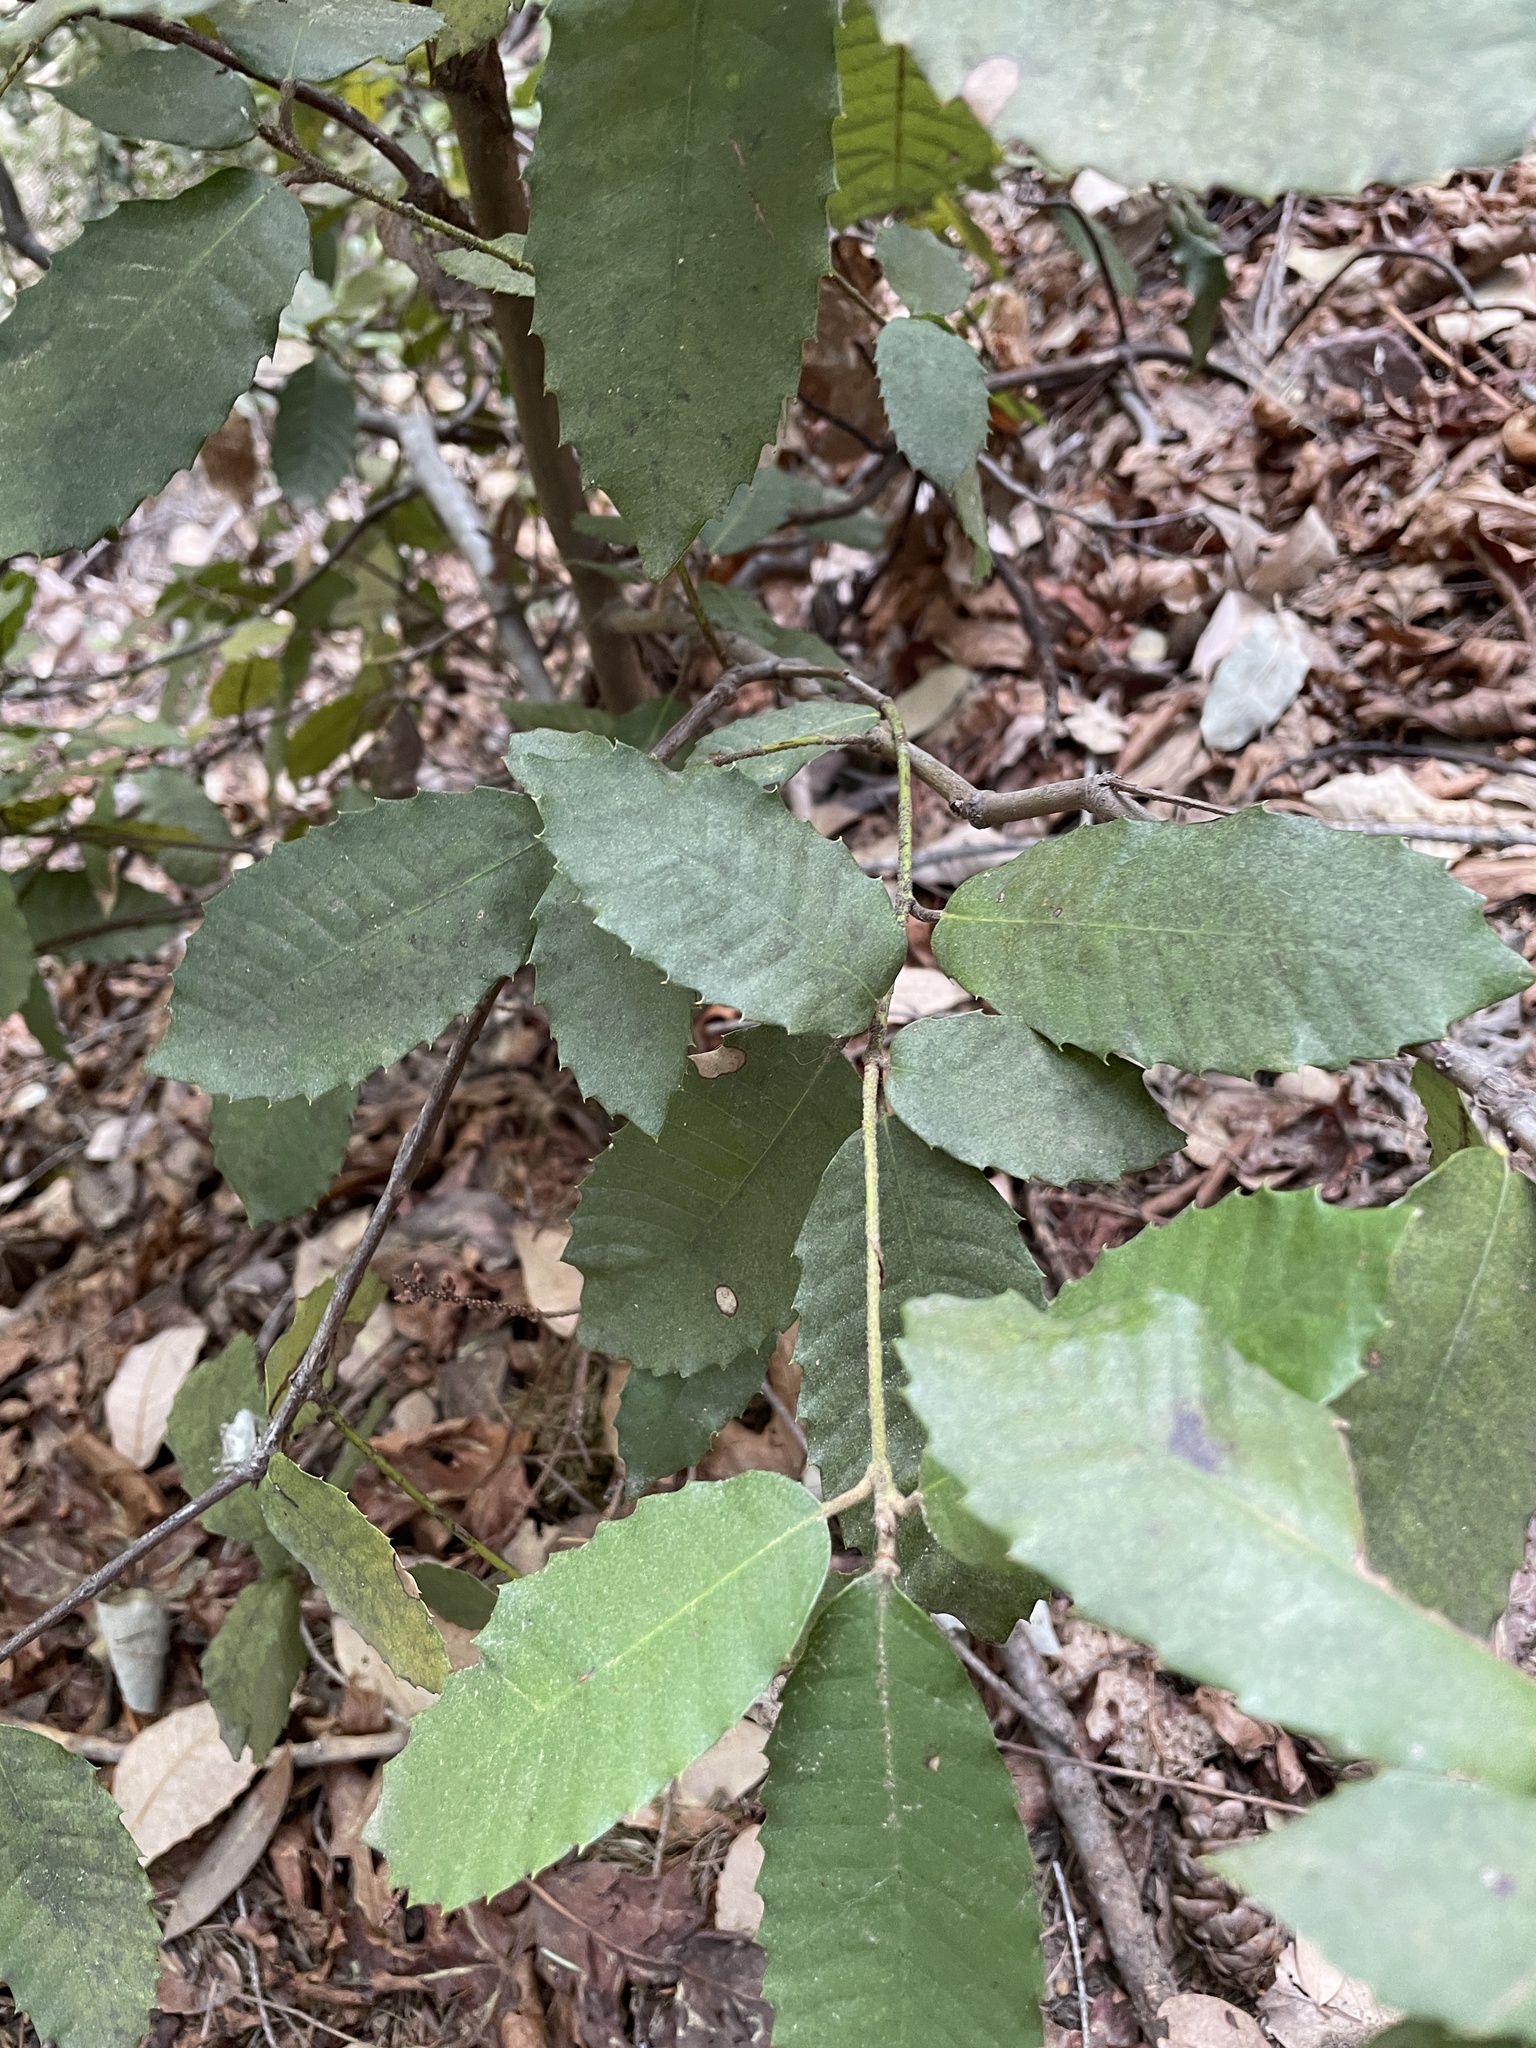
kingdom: Plantae
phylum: Tracheophyta
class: Magnoliopsida
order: Fagales
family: Fagaceae
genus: Notholithocarpus
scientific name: Notholithocarpus densiflorus
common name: Tan bark oak
